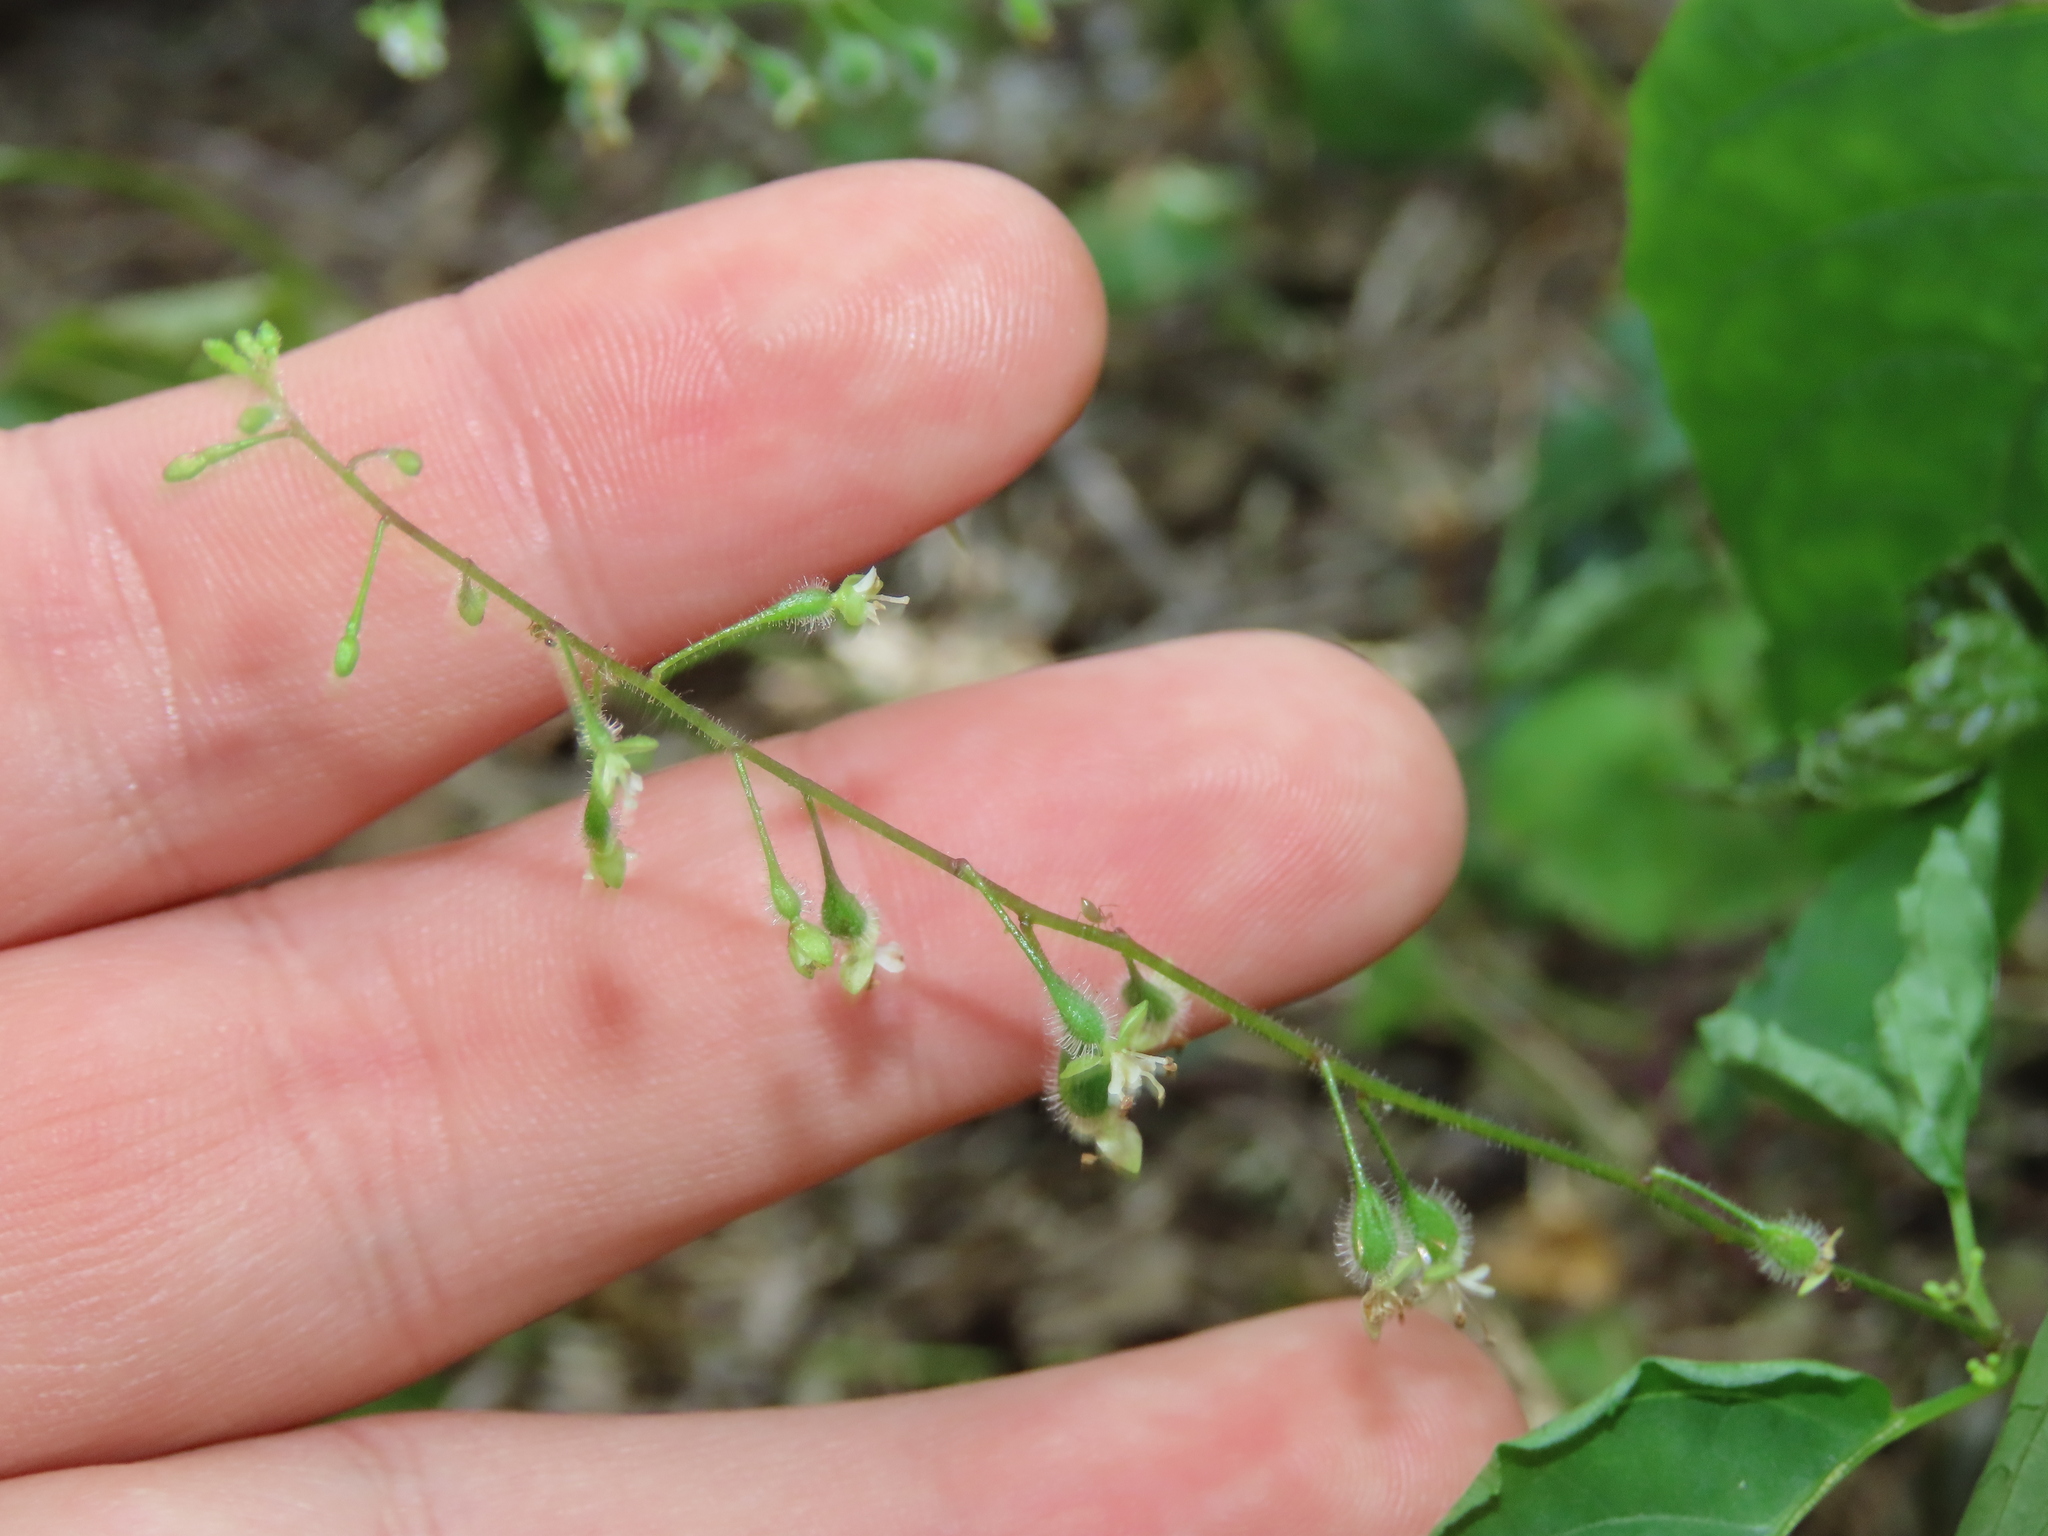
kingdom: Plantae
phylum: Tracheophyta
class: Magnoliopsida
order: Myrtales
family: Onagraceae
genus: Circaea
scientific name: Circaea canadensis
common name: Broad-leaved enchanter's nightshade
